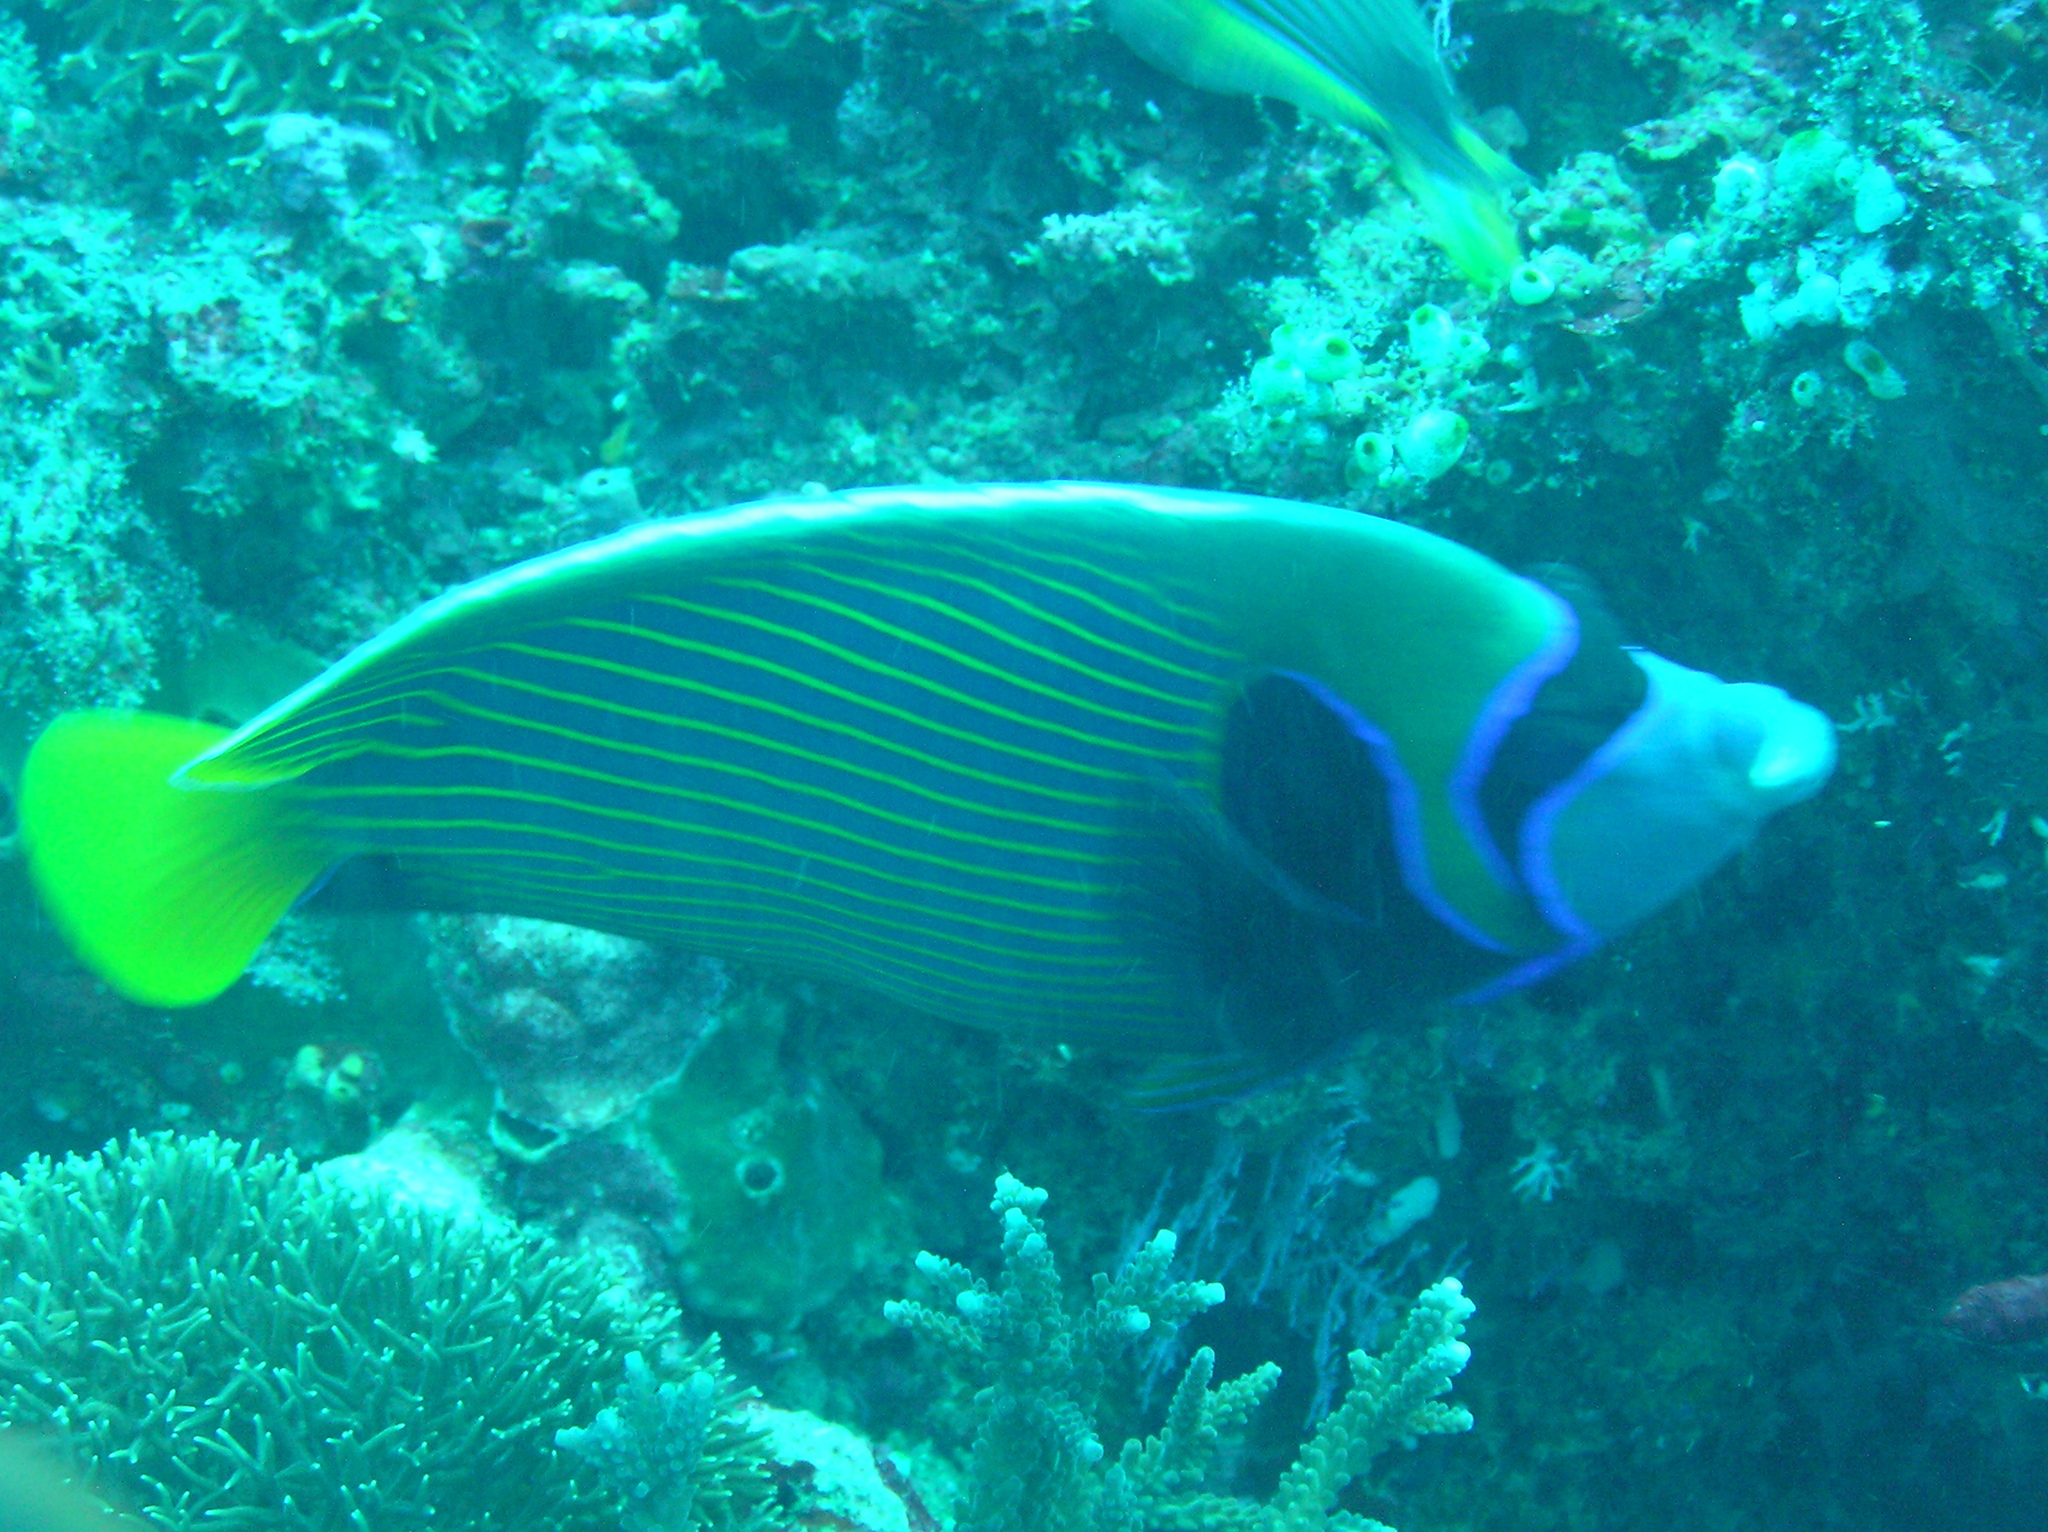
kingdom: Animalia
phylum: Chordata
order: Perciformes
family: Pomacanthidae
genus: Pomacanthus
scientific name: Pomacanthus imperator
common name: Emperor angelfish
